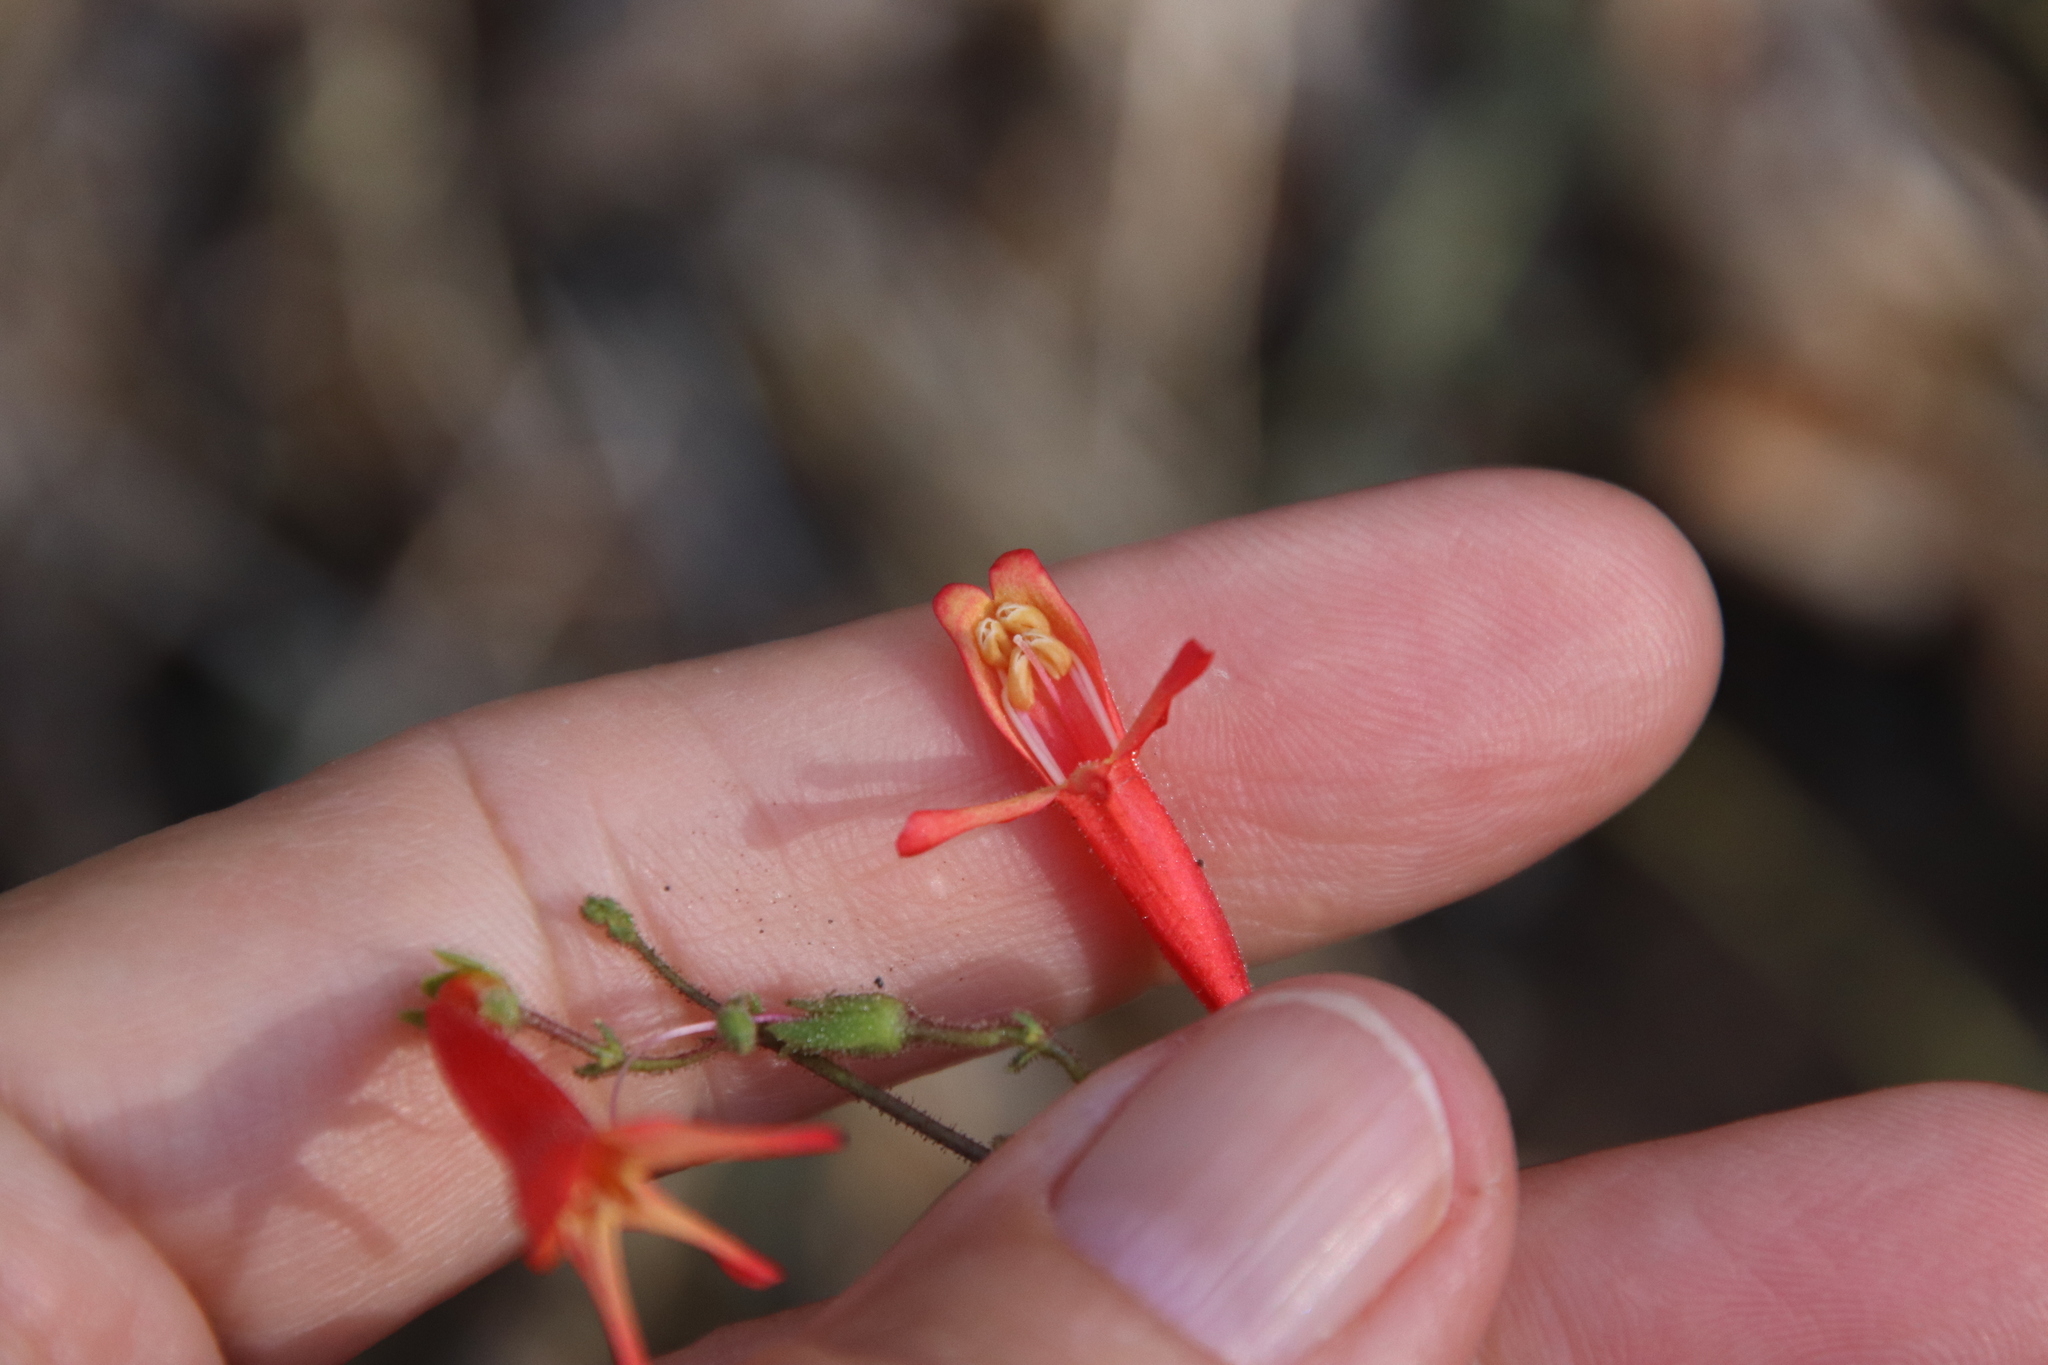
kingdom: Plantae
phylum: Tracheophyta
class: Magnoliopsida
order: Lamiales
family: Plantaginaceae
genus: Penstemon
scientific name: Penstemon rostriflorus
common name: Bridges's penstemon
